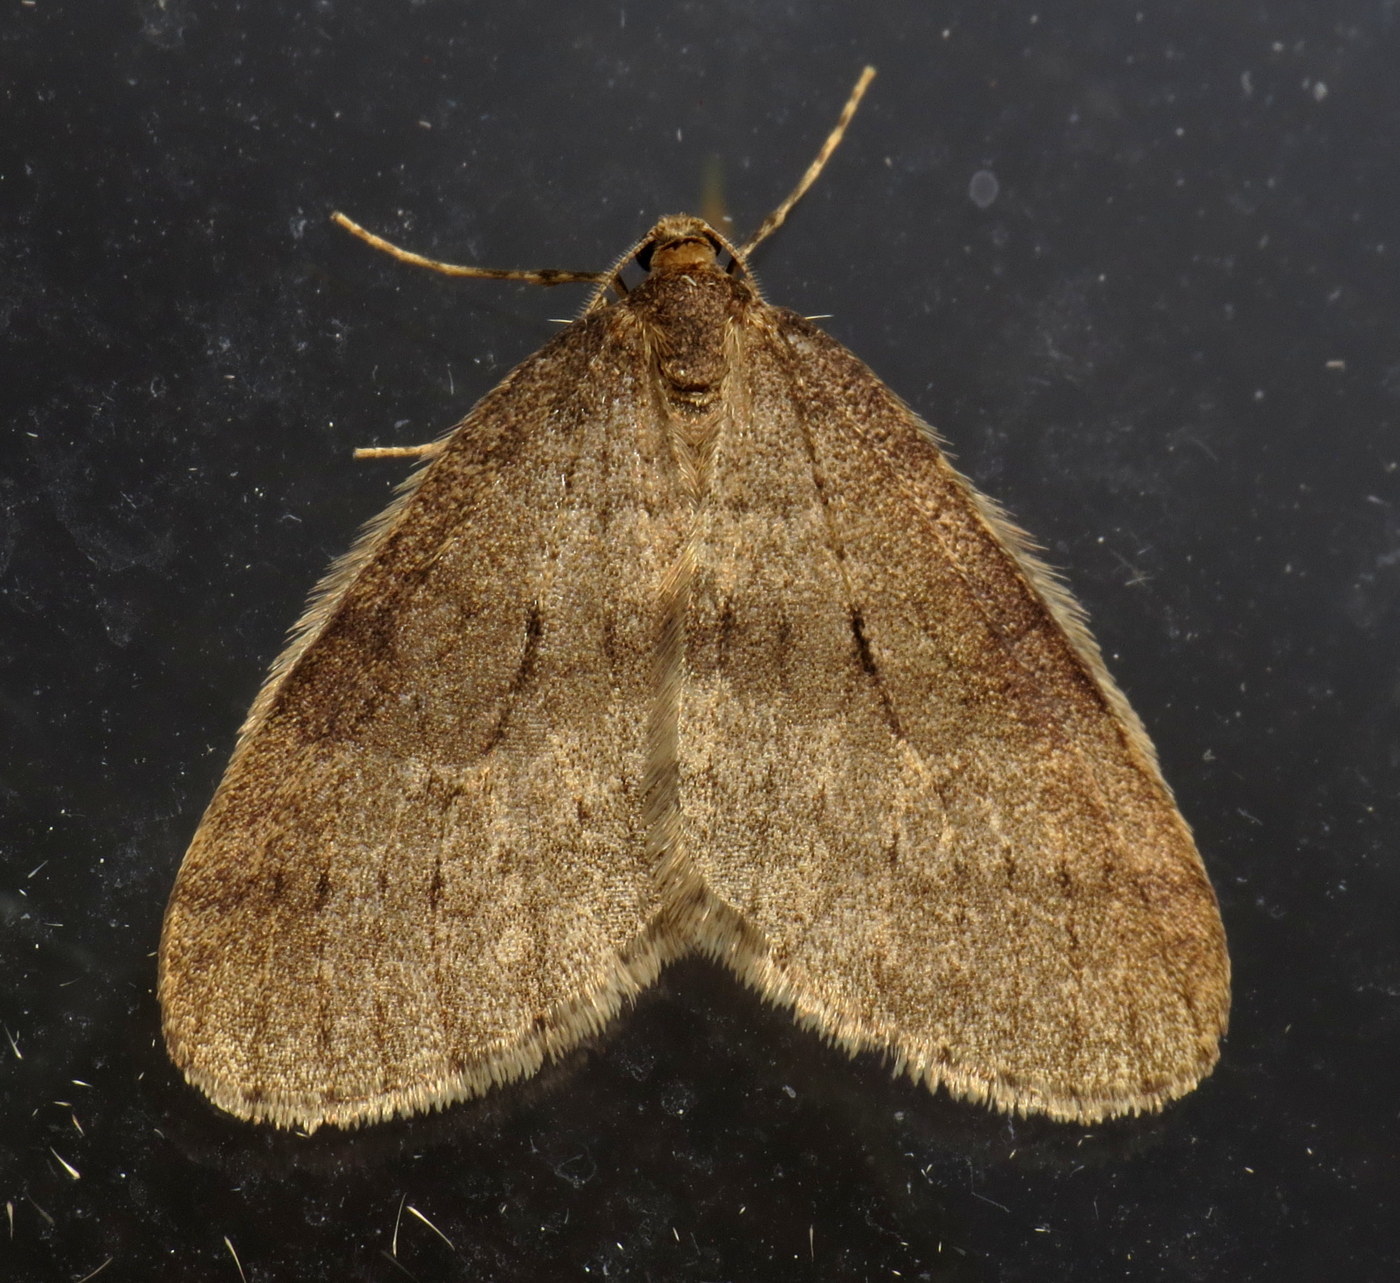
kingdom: Animalia
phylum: Arthropoda
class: Insecta
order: Lepidoptera
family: Geometridae
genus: Operophtera
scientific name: Operophtera brumata
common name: Winter moth
